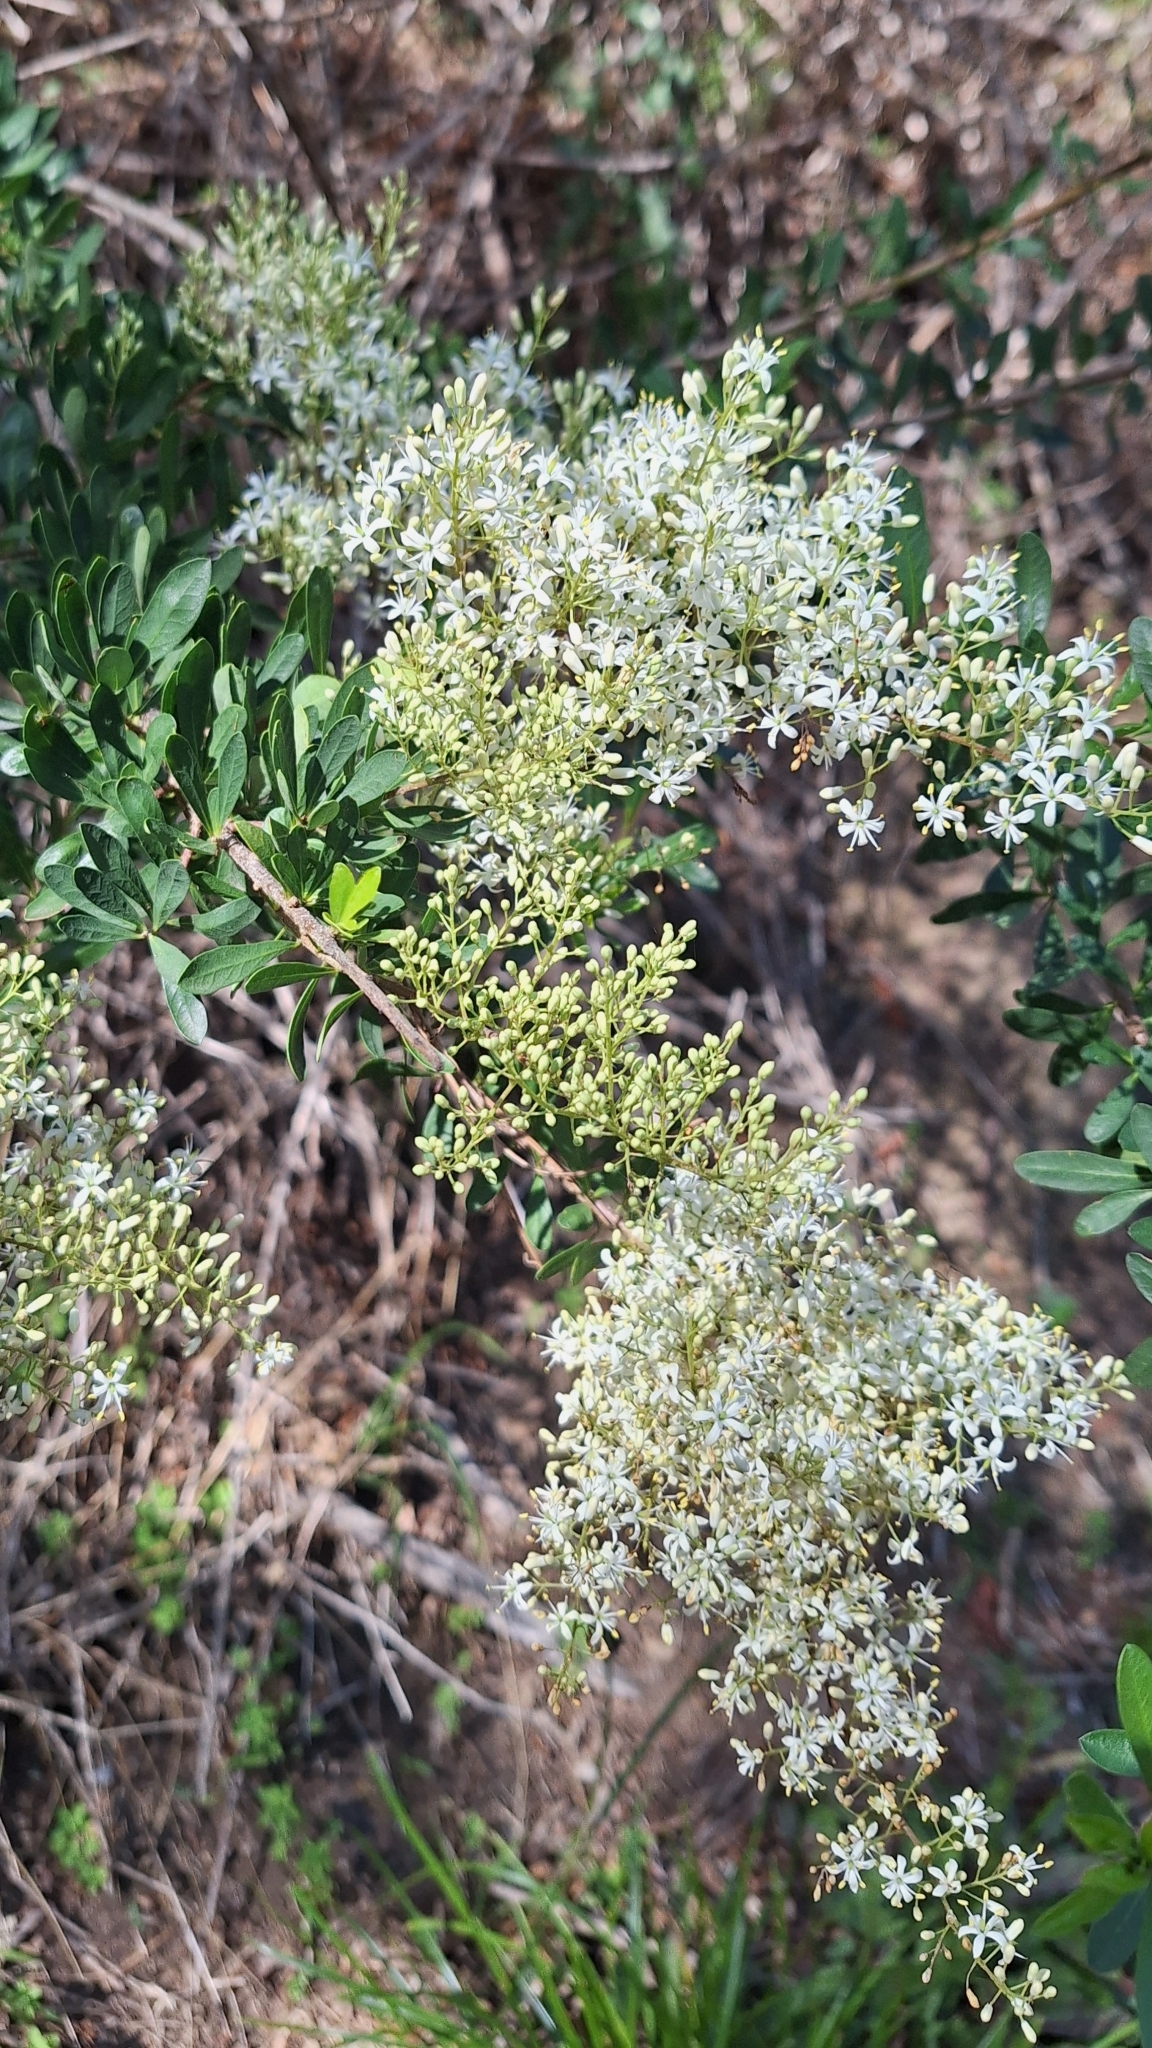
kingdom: Plantae
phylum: Tracheophyta
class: Magnoliopsida
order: Apiales
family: Pittosporaceae
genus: Bursaria
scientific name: Bursaria spinosa
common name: Australian blackthorn
